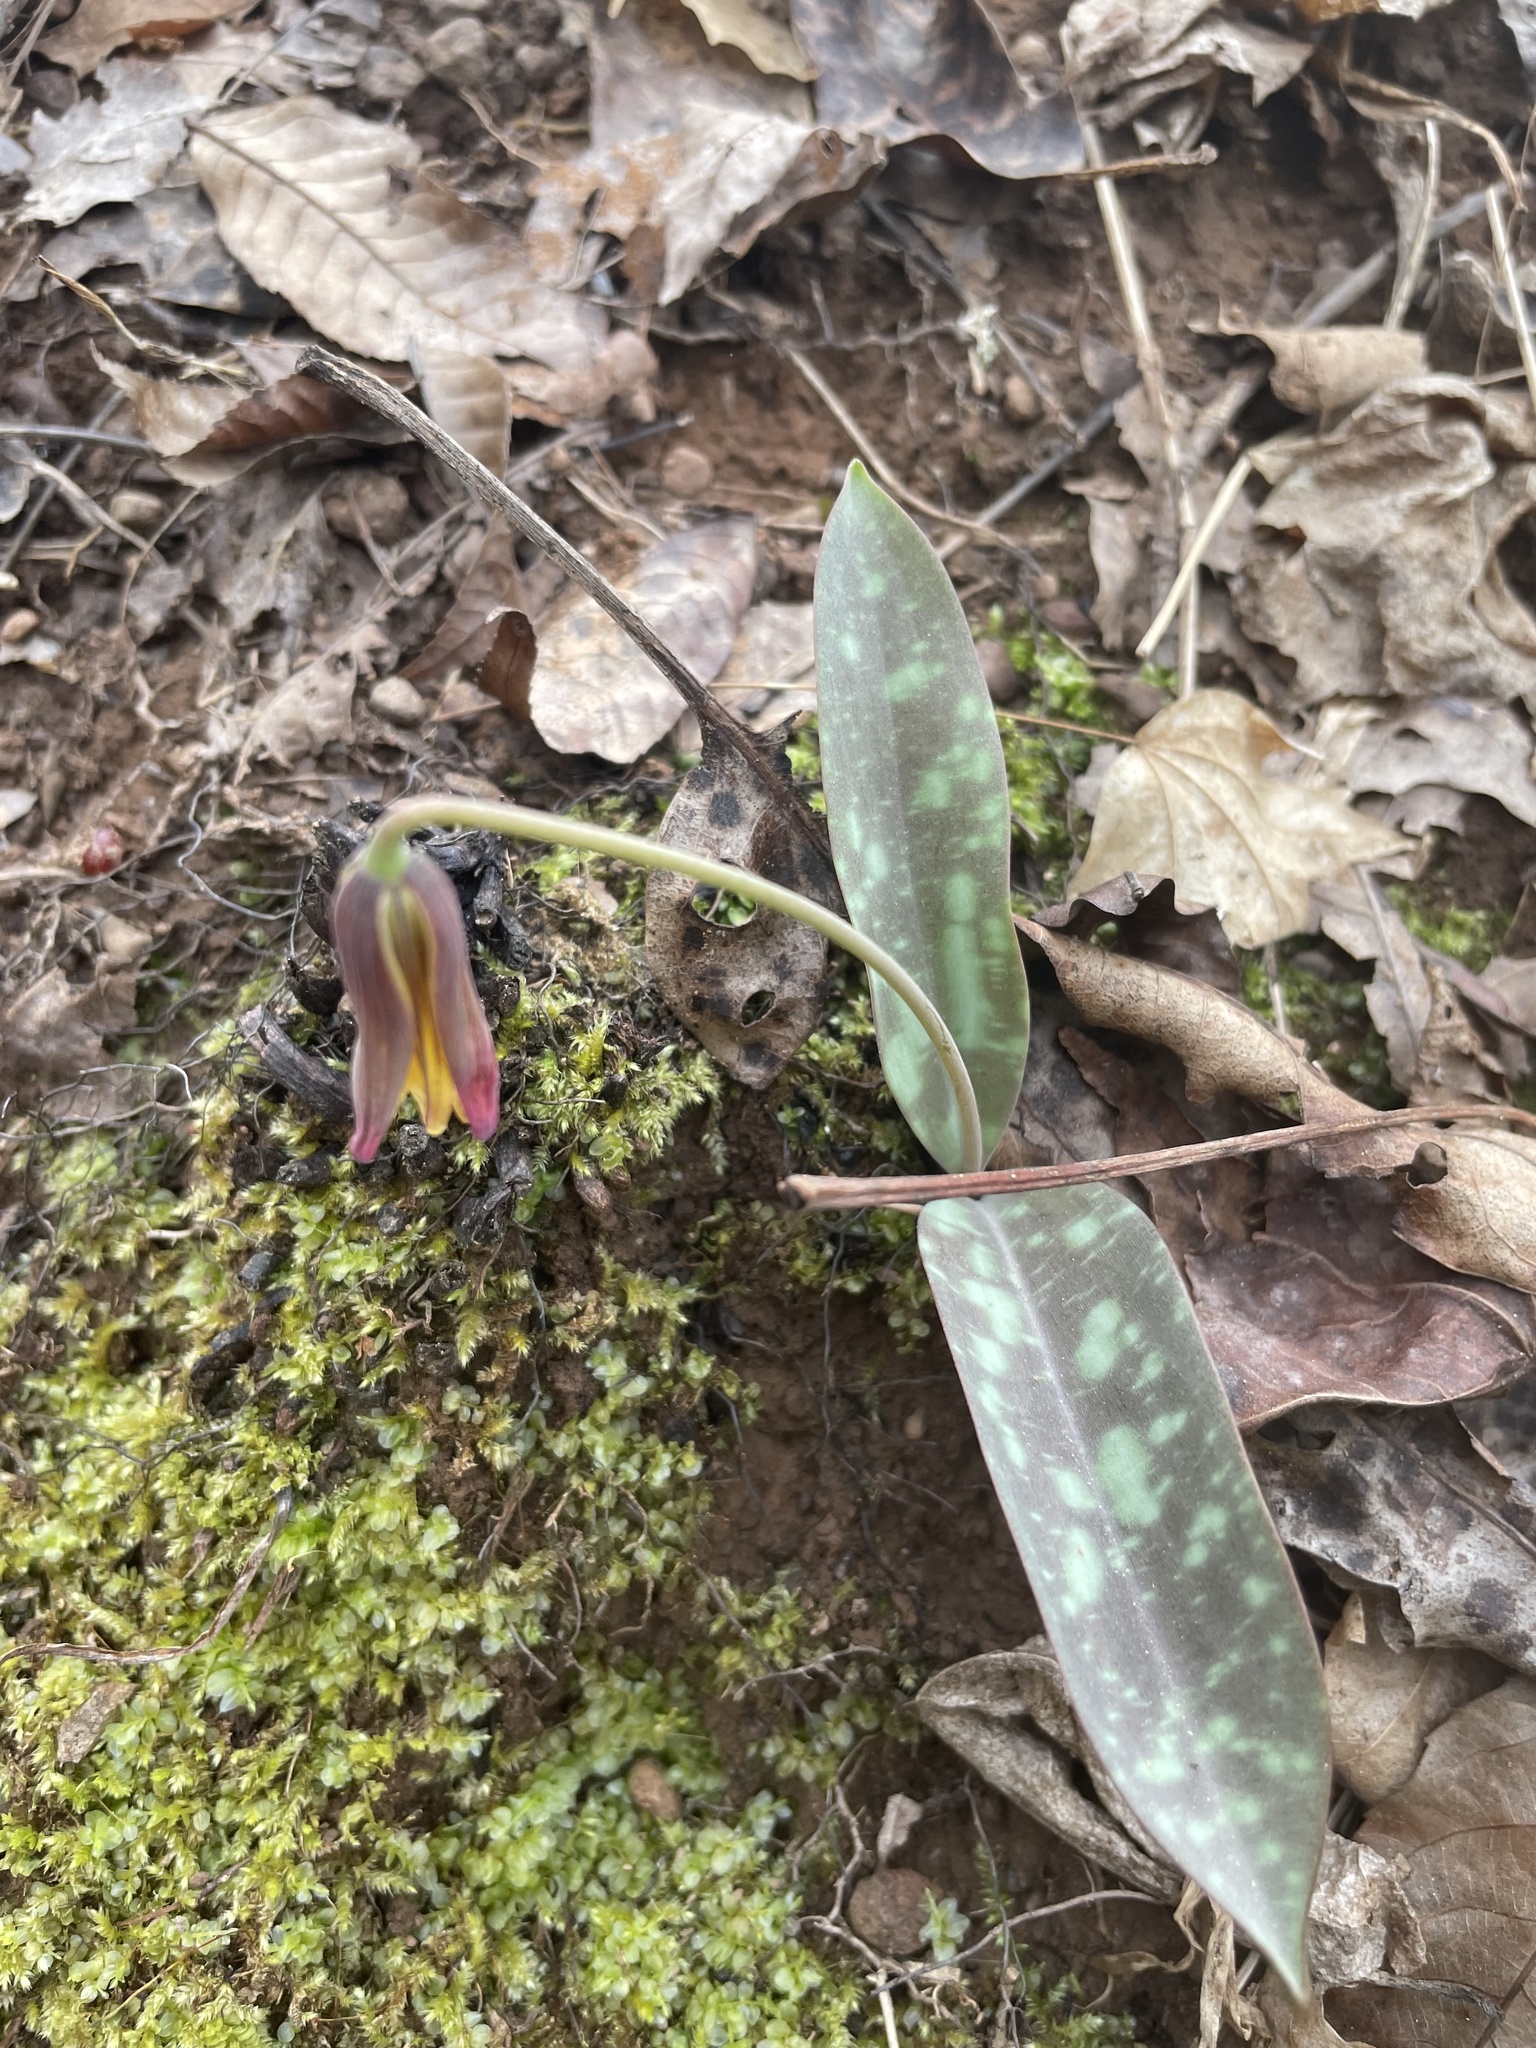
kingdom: Plantae
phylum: Tracheophyta
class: Liliopsida
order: Liliales
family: Liliaceae
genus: Erythronium
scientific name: Erythronium umbilicatum
